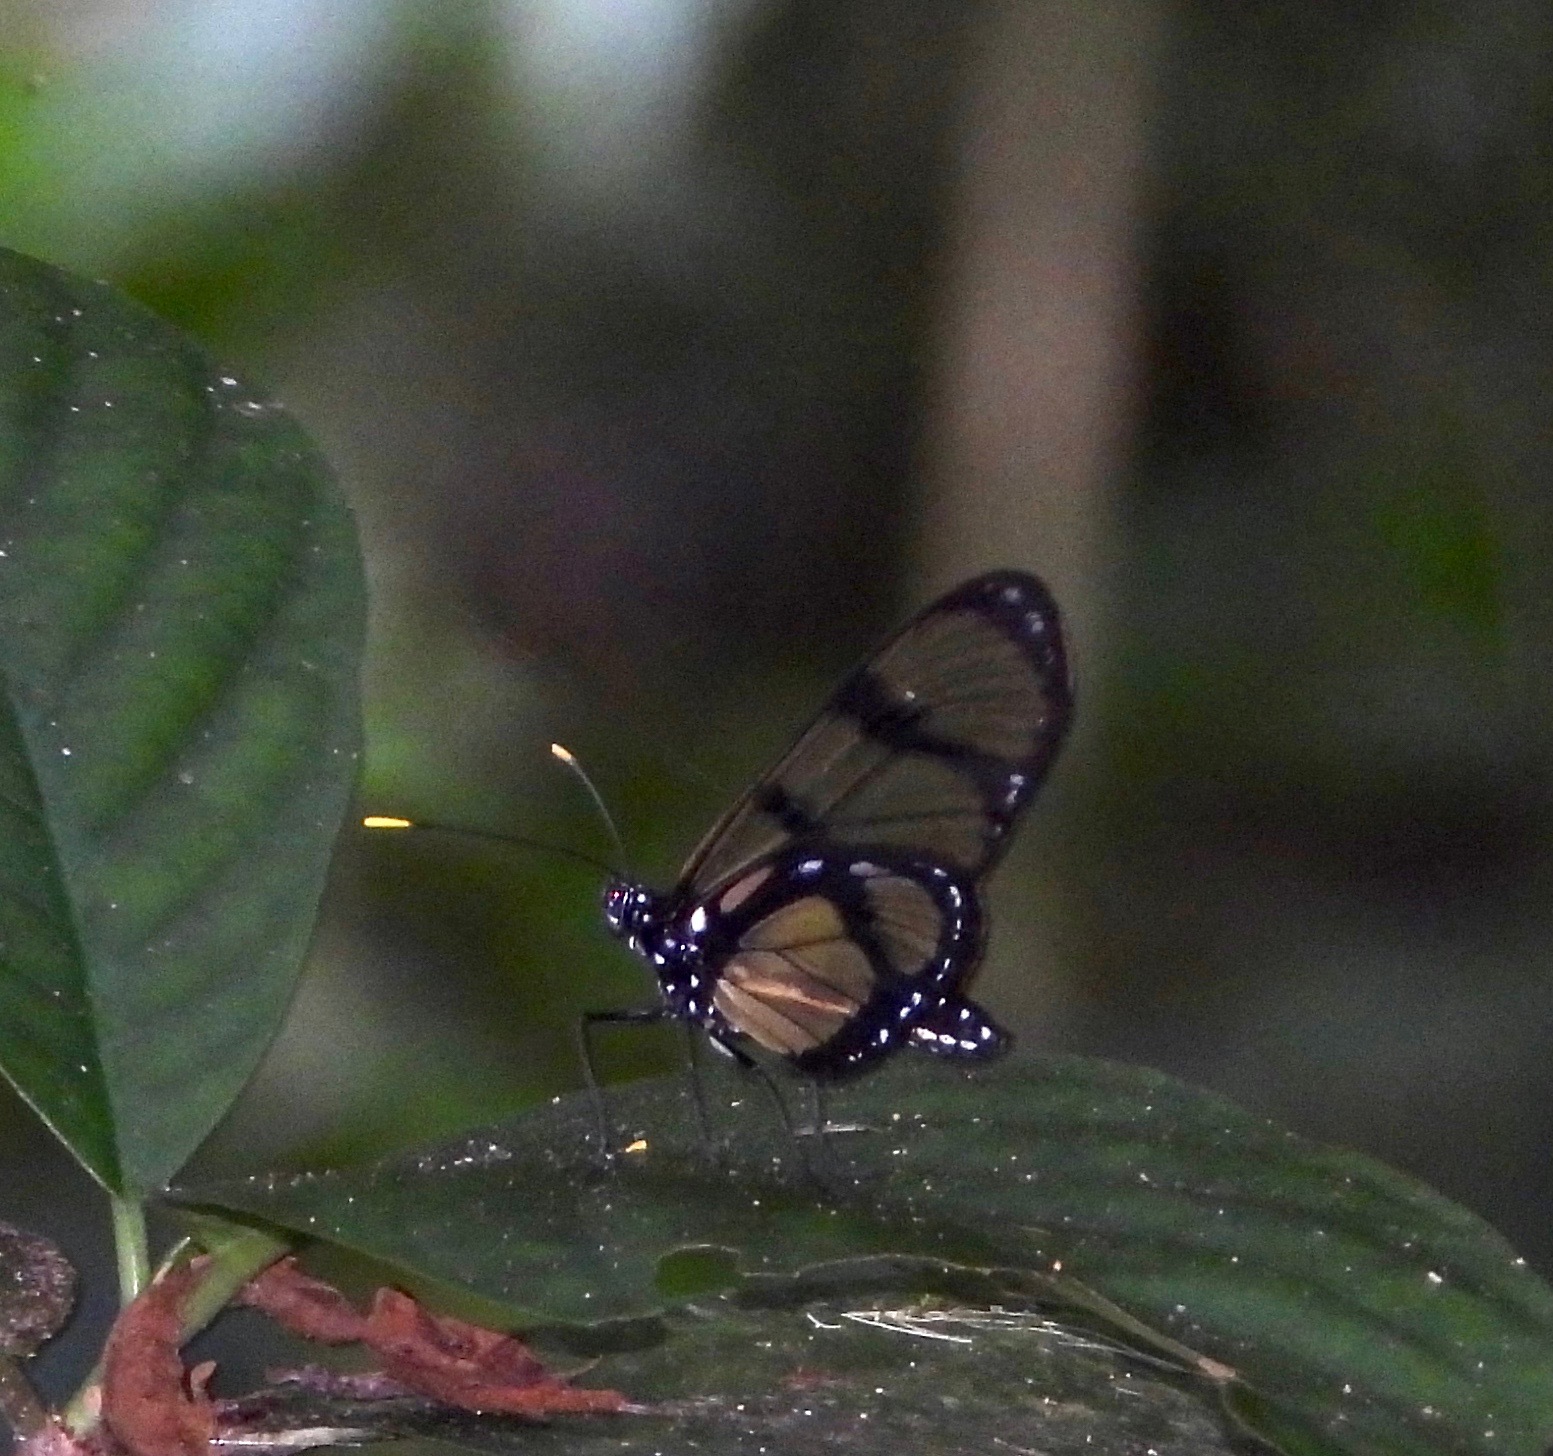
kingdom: Animalia
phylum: Arthropoda
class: Insecta
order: Lepidoptera
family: Nymphalidae
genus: Methona
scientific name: Methona confusa
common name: Confusa tigerwing
